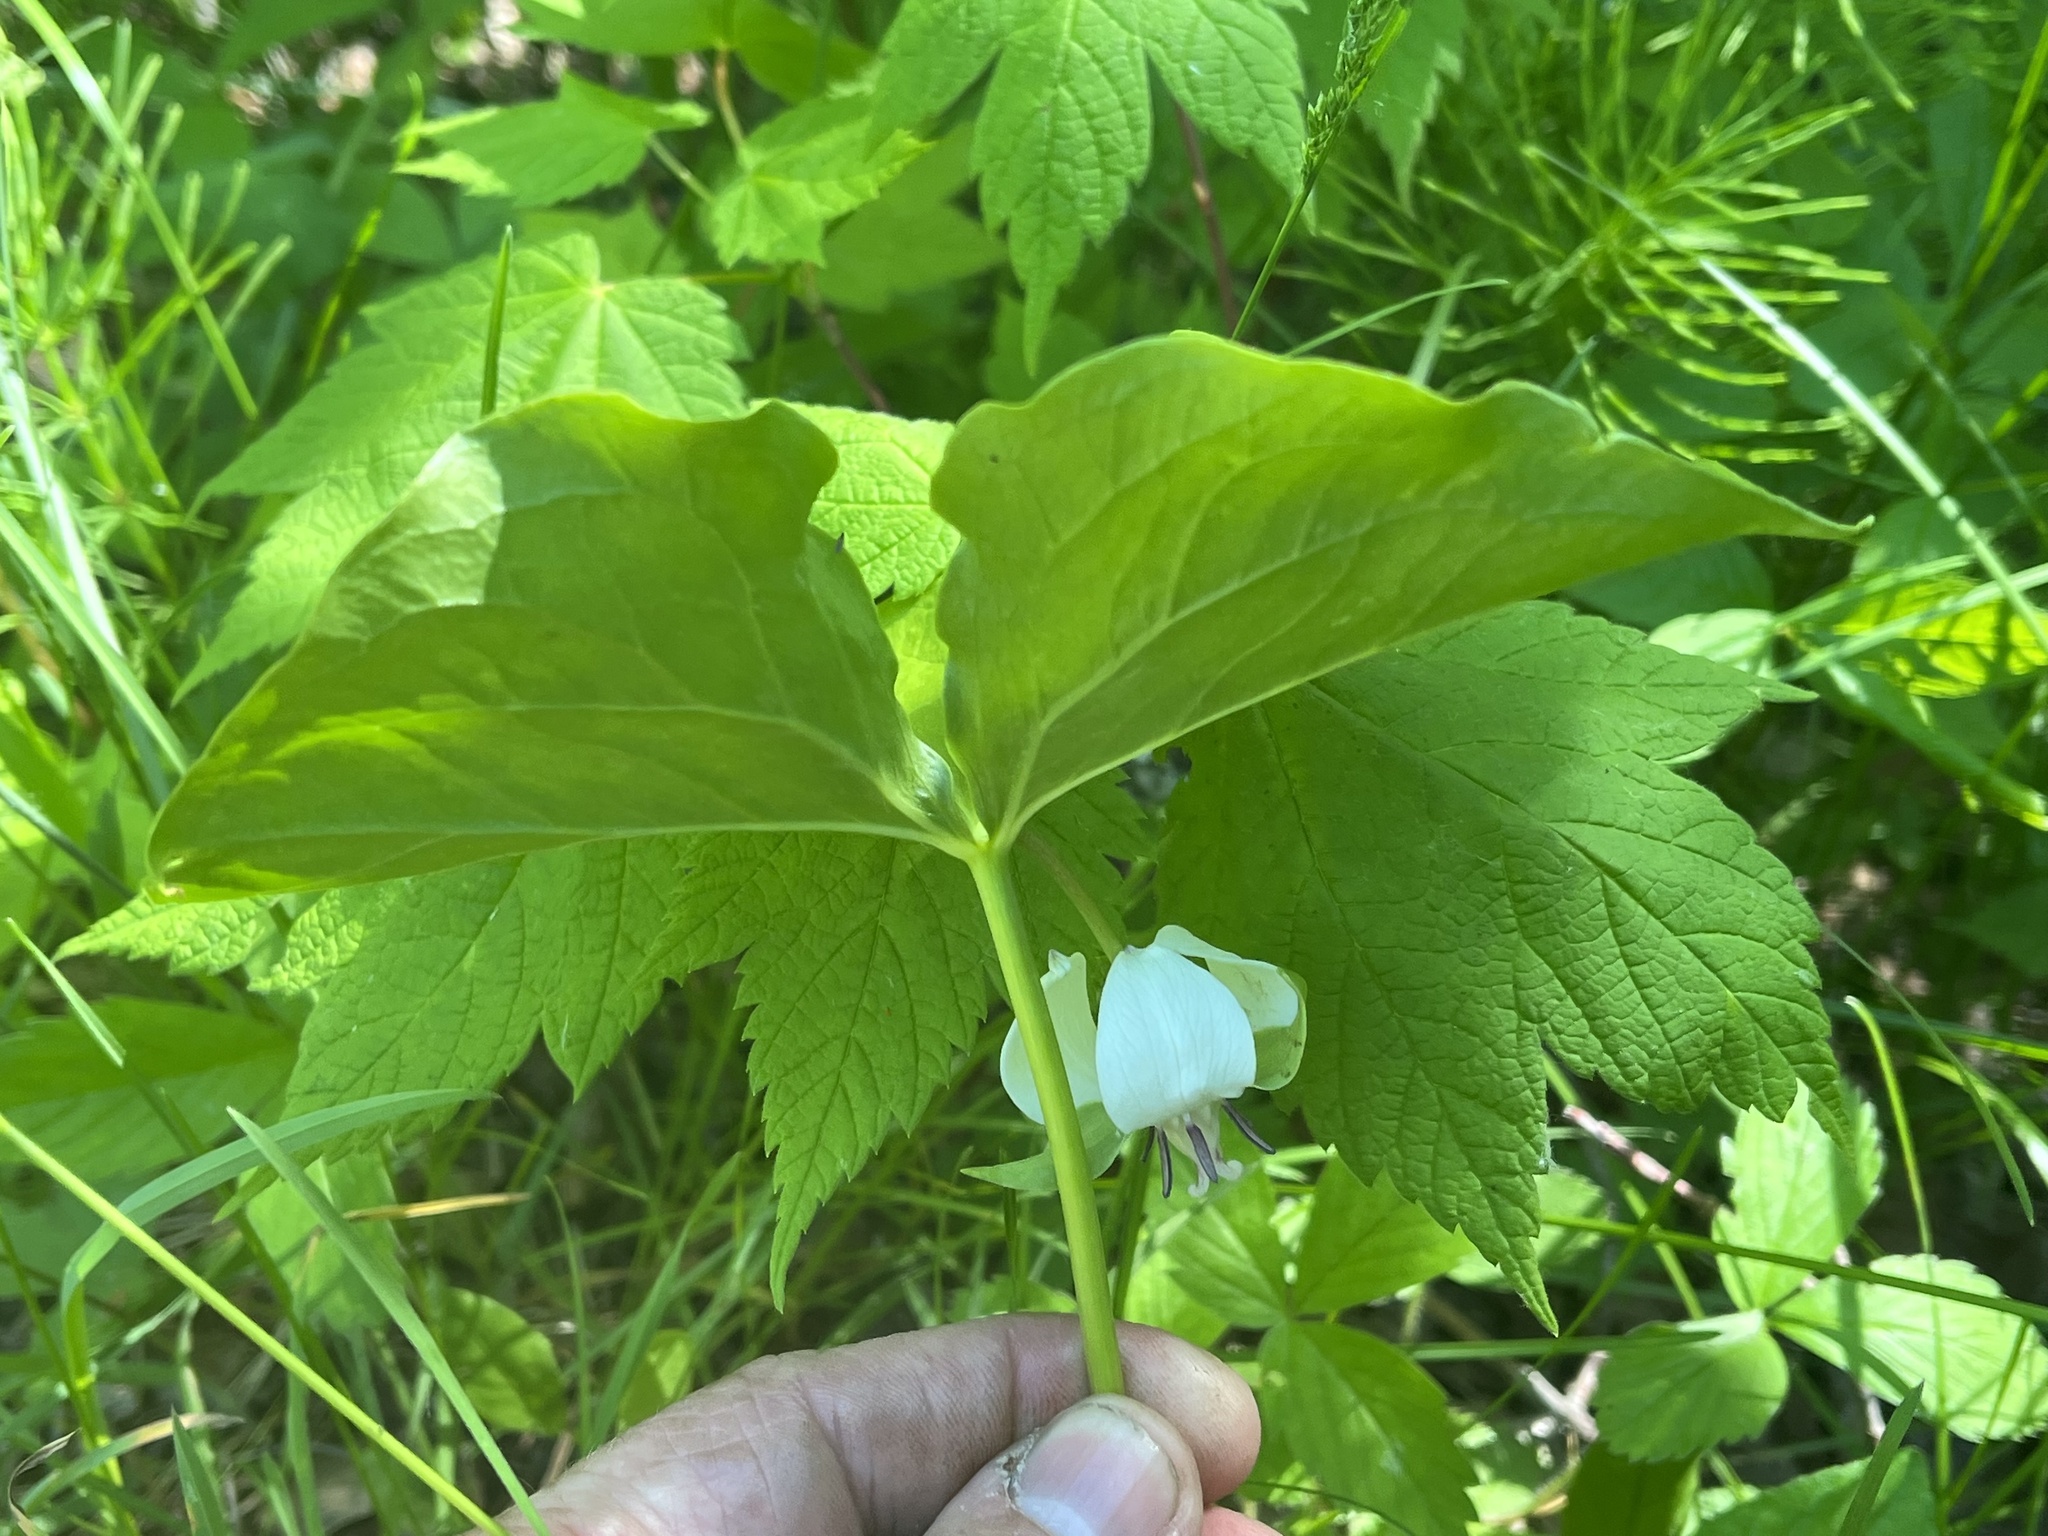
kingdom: Plantae
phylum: Tracheophyta
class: Liliopsida
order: Liliales
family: Melanthiaceae
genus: Trillium
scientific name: Trillium cernuum
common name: Nodding trillium
